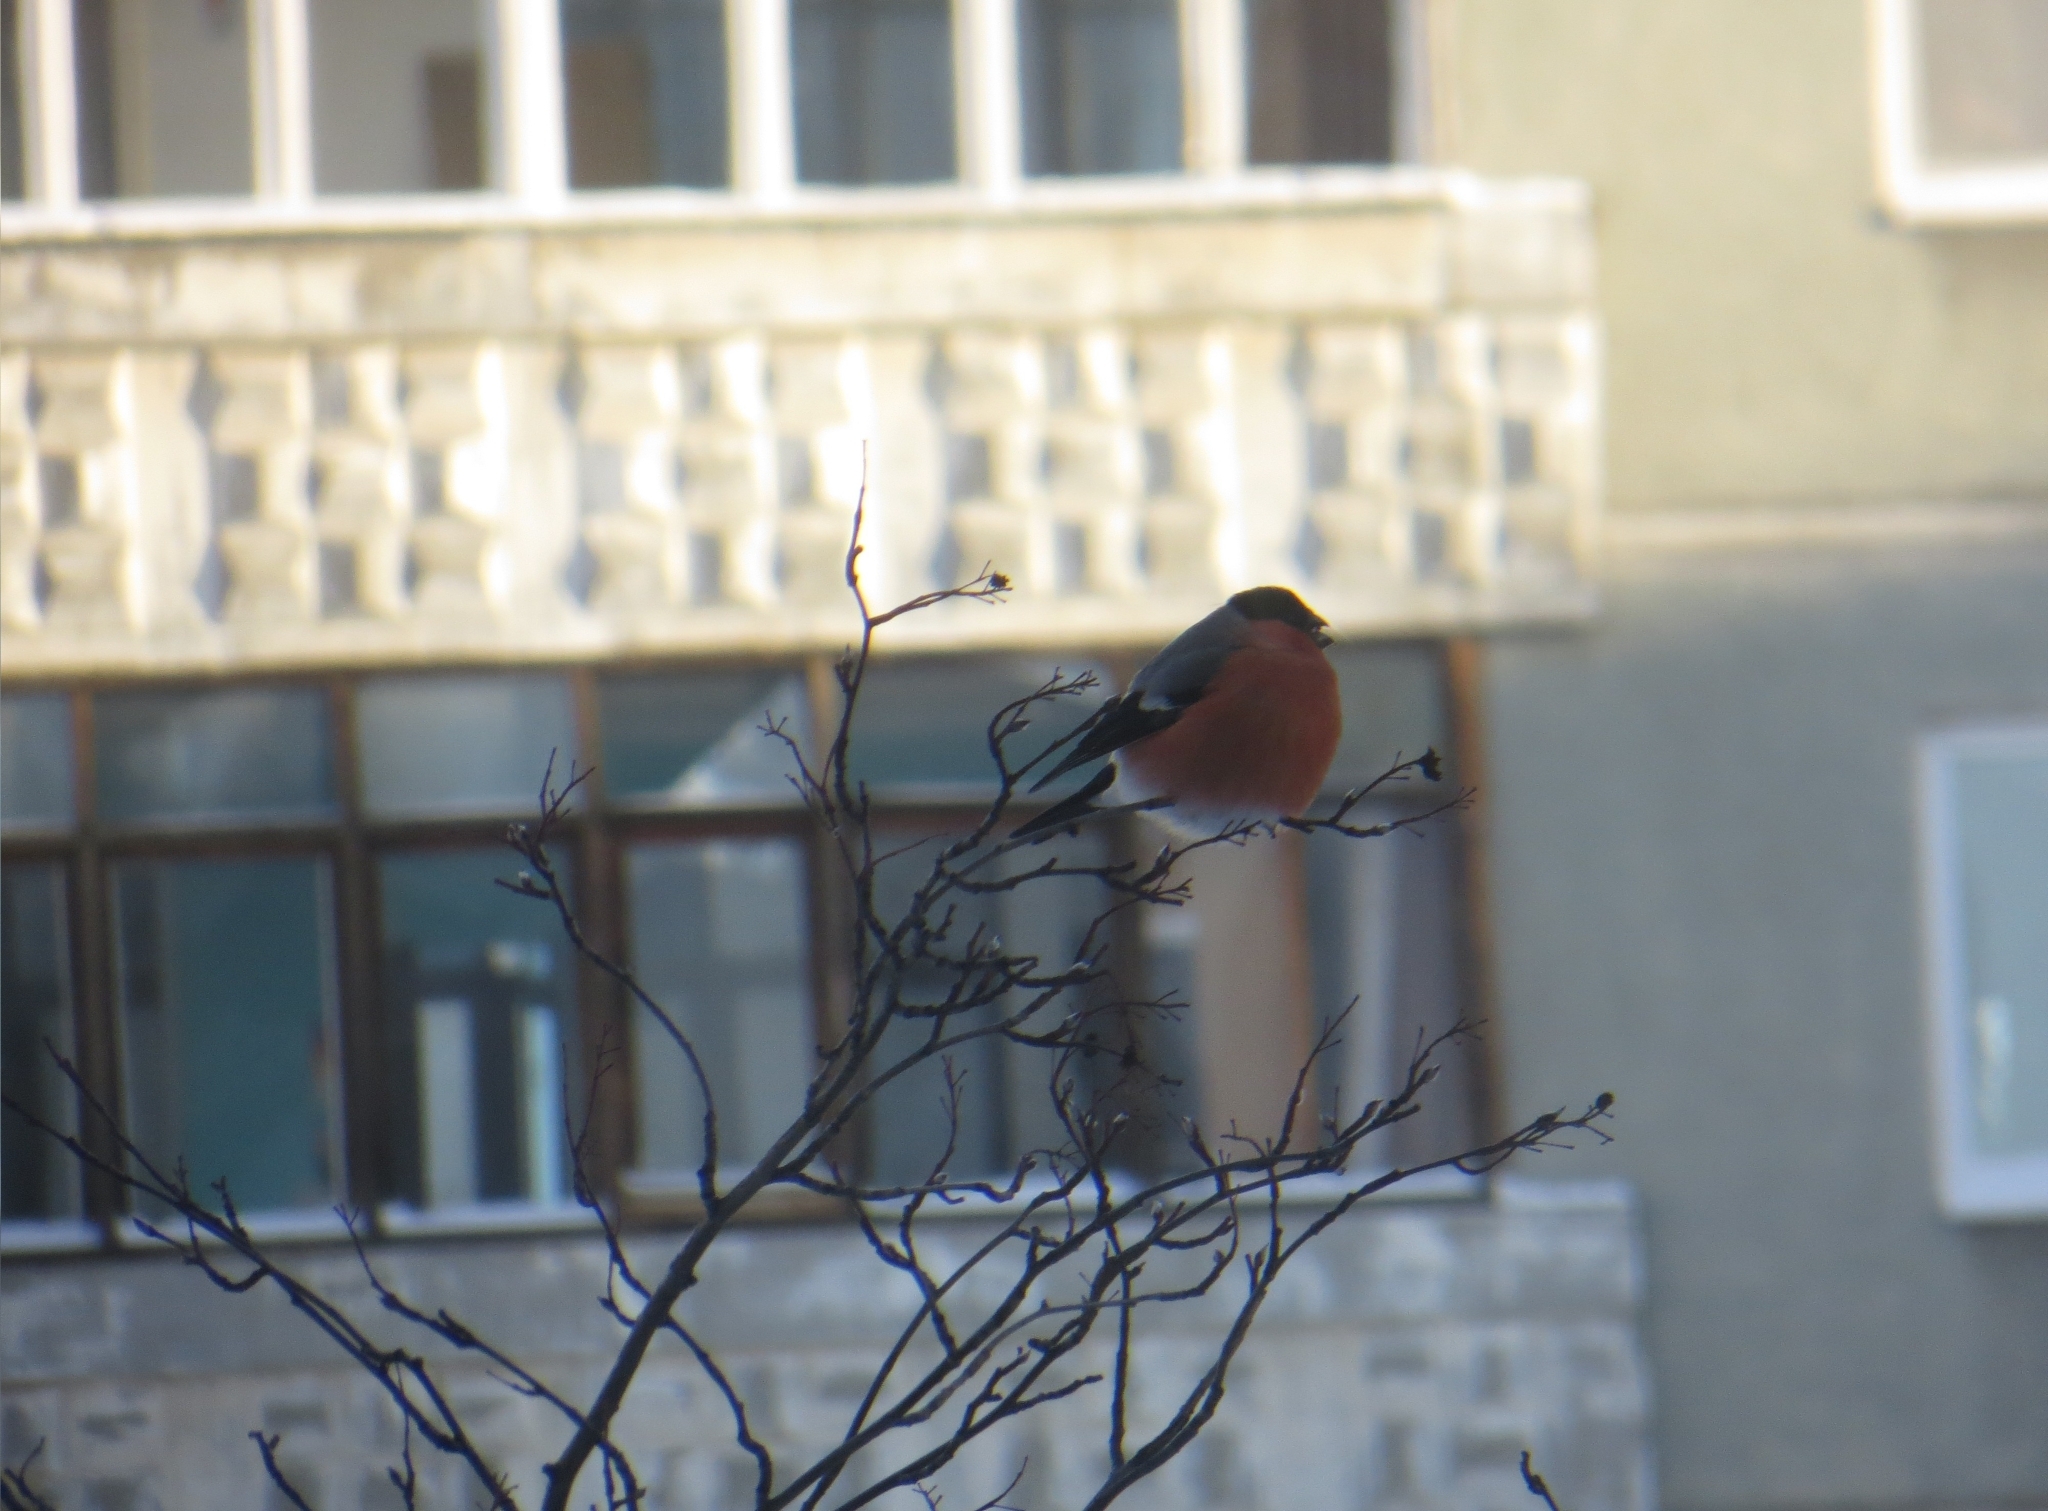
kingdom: Animalia
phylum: Chordata
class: Aves
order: Passeriformes
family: Fringillidae
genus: Pyrrhula
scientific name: Pyrrhula pyrrhula
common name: Eurasian bullfinch
